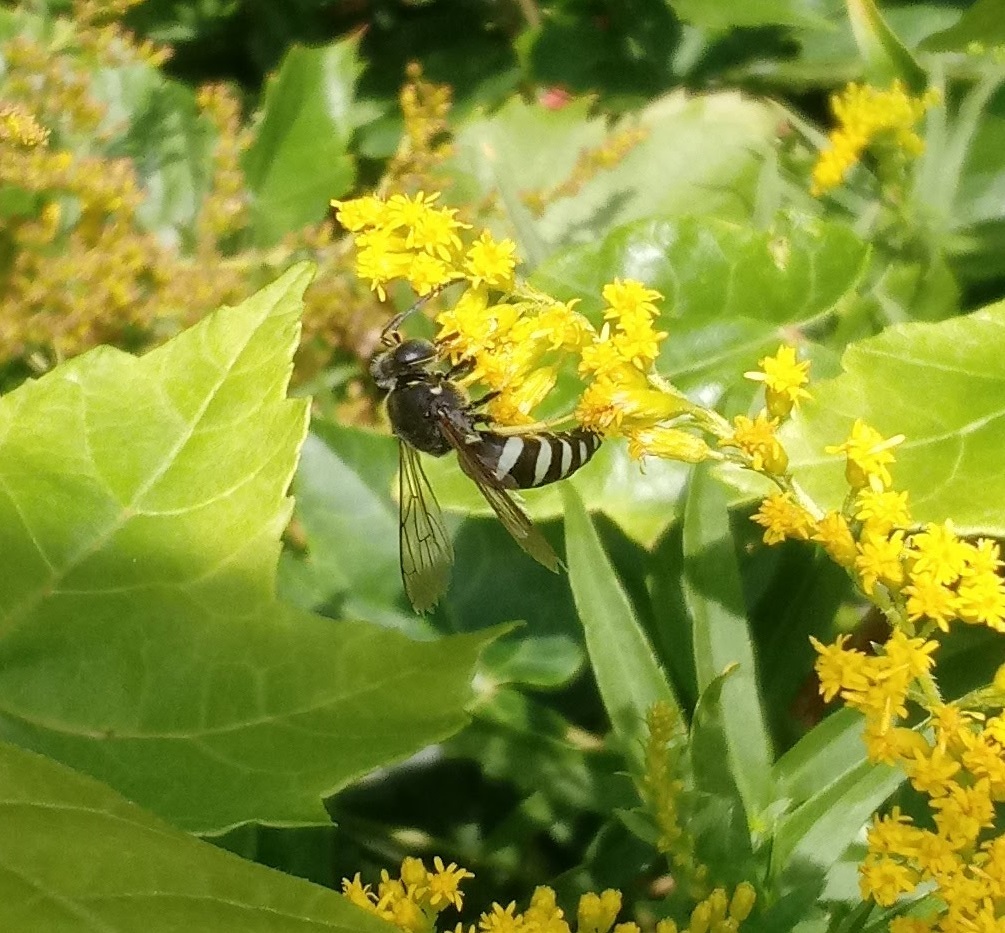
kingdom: Animalia
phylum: Arthropoda
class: Insecta
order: Hymenoptera
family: Crabronidae
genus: Bicyrtes
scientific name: Bicyrtes quadrifasciatus
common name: Four-banded stink bug hunter wasp
